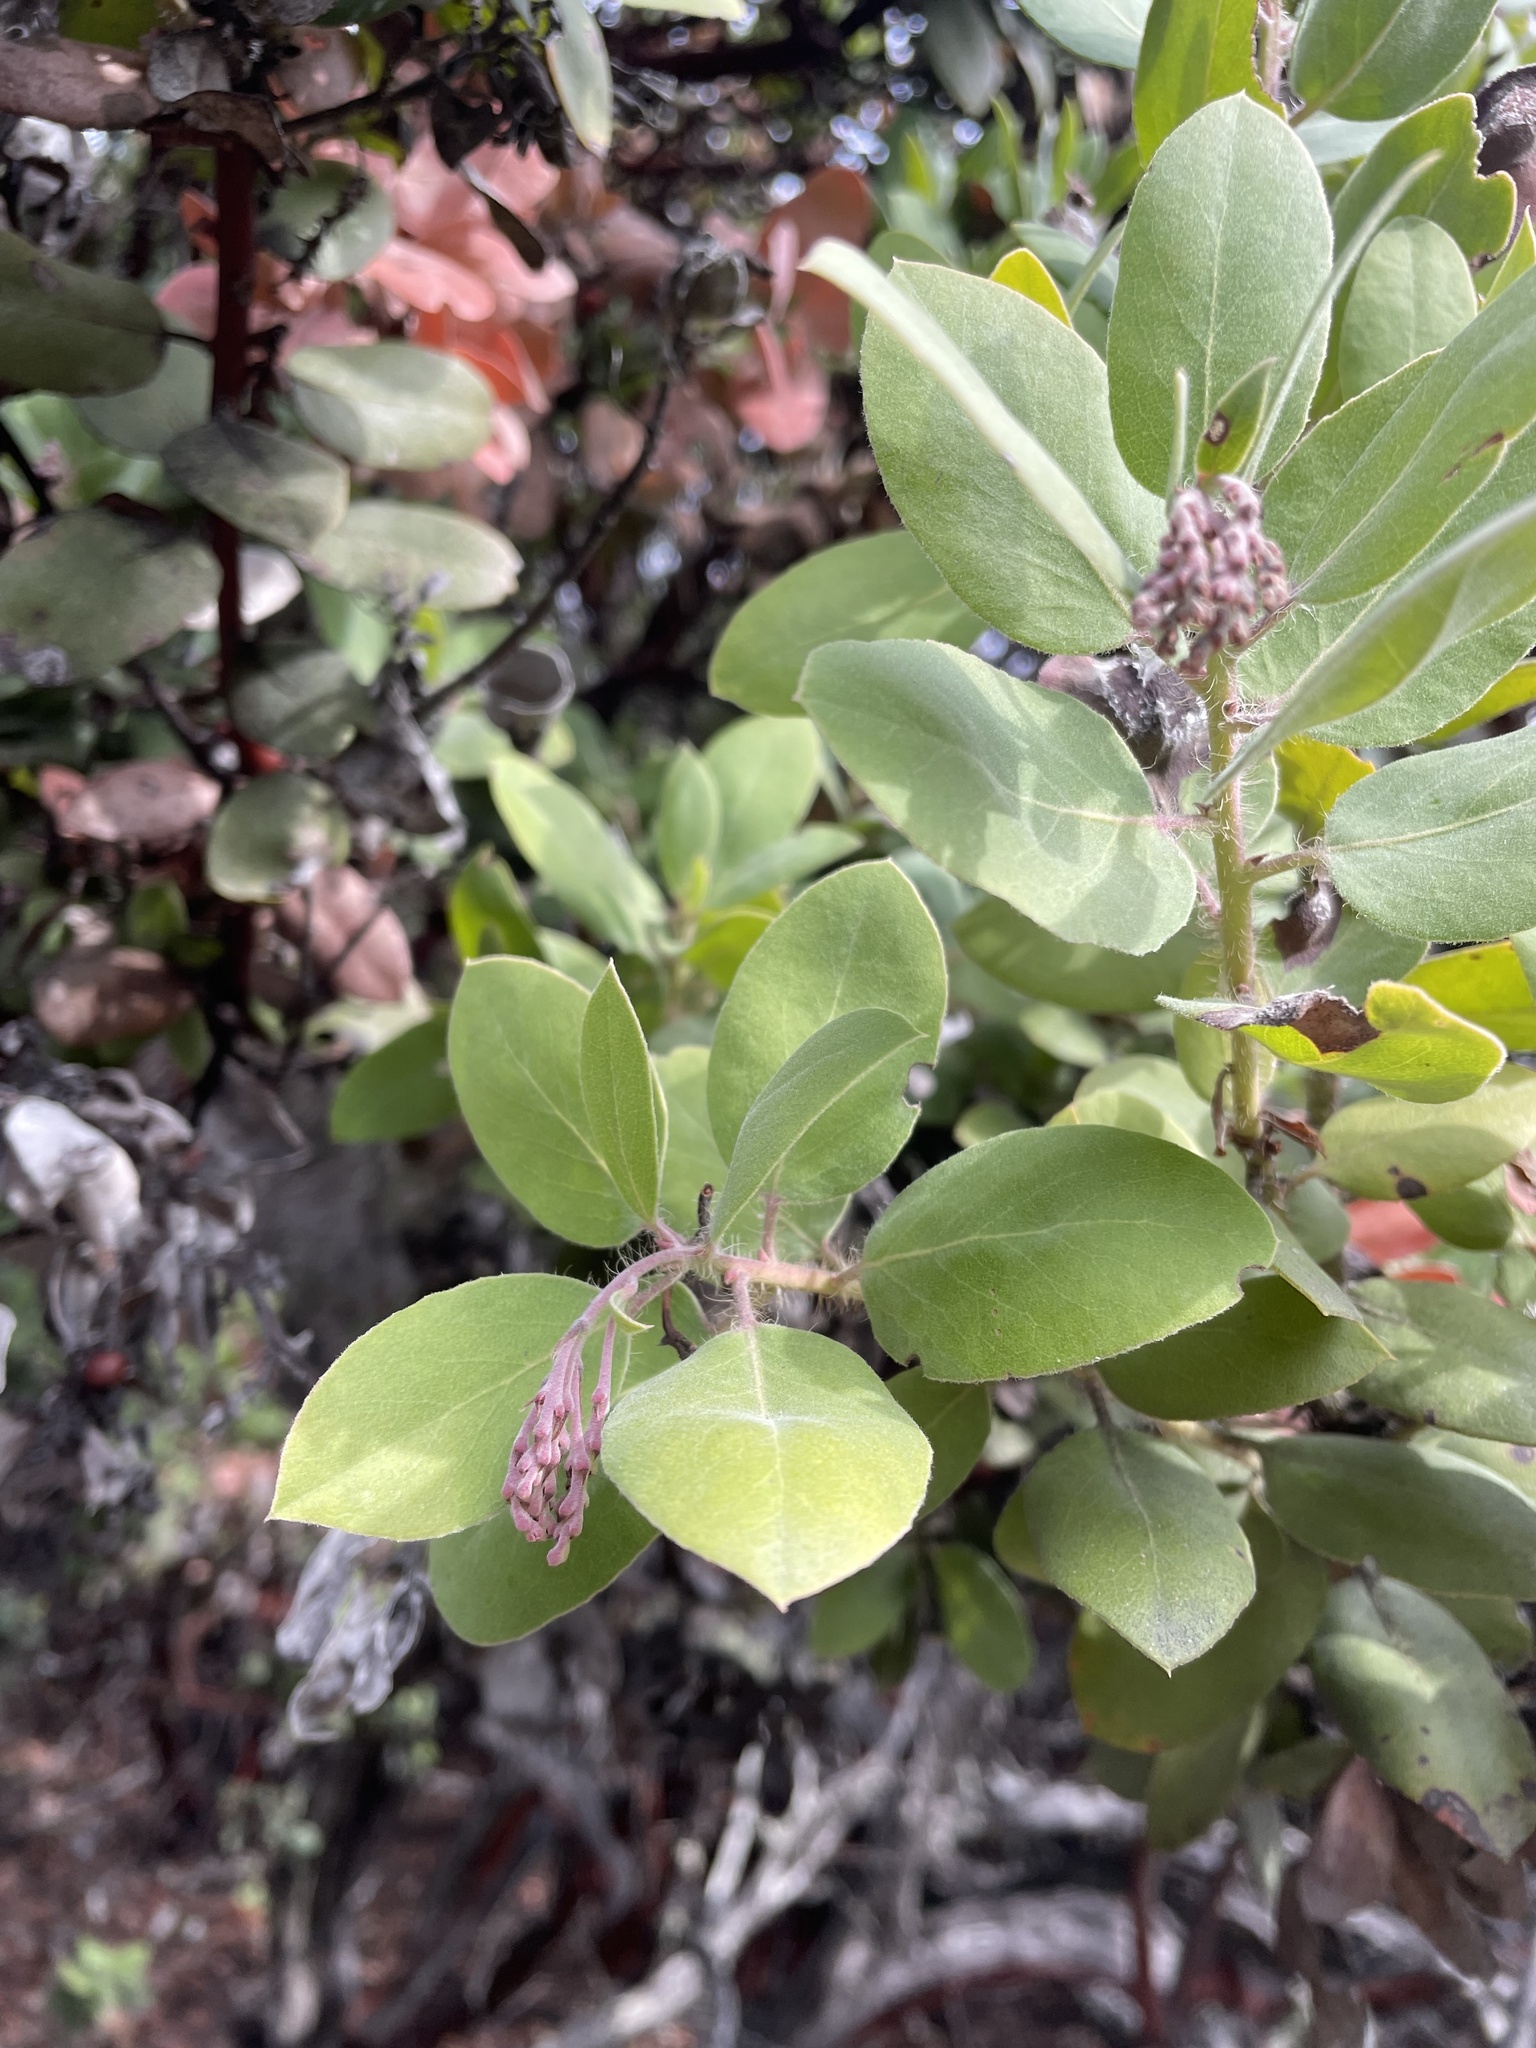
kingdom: Plantae
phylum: Tracheophyta
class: Magnoliopsida
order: Ericales
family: Ericaceae
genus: Arctostaphylos
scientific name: Arctostaphylos crustacea
